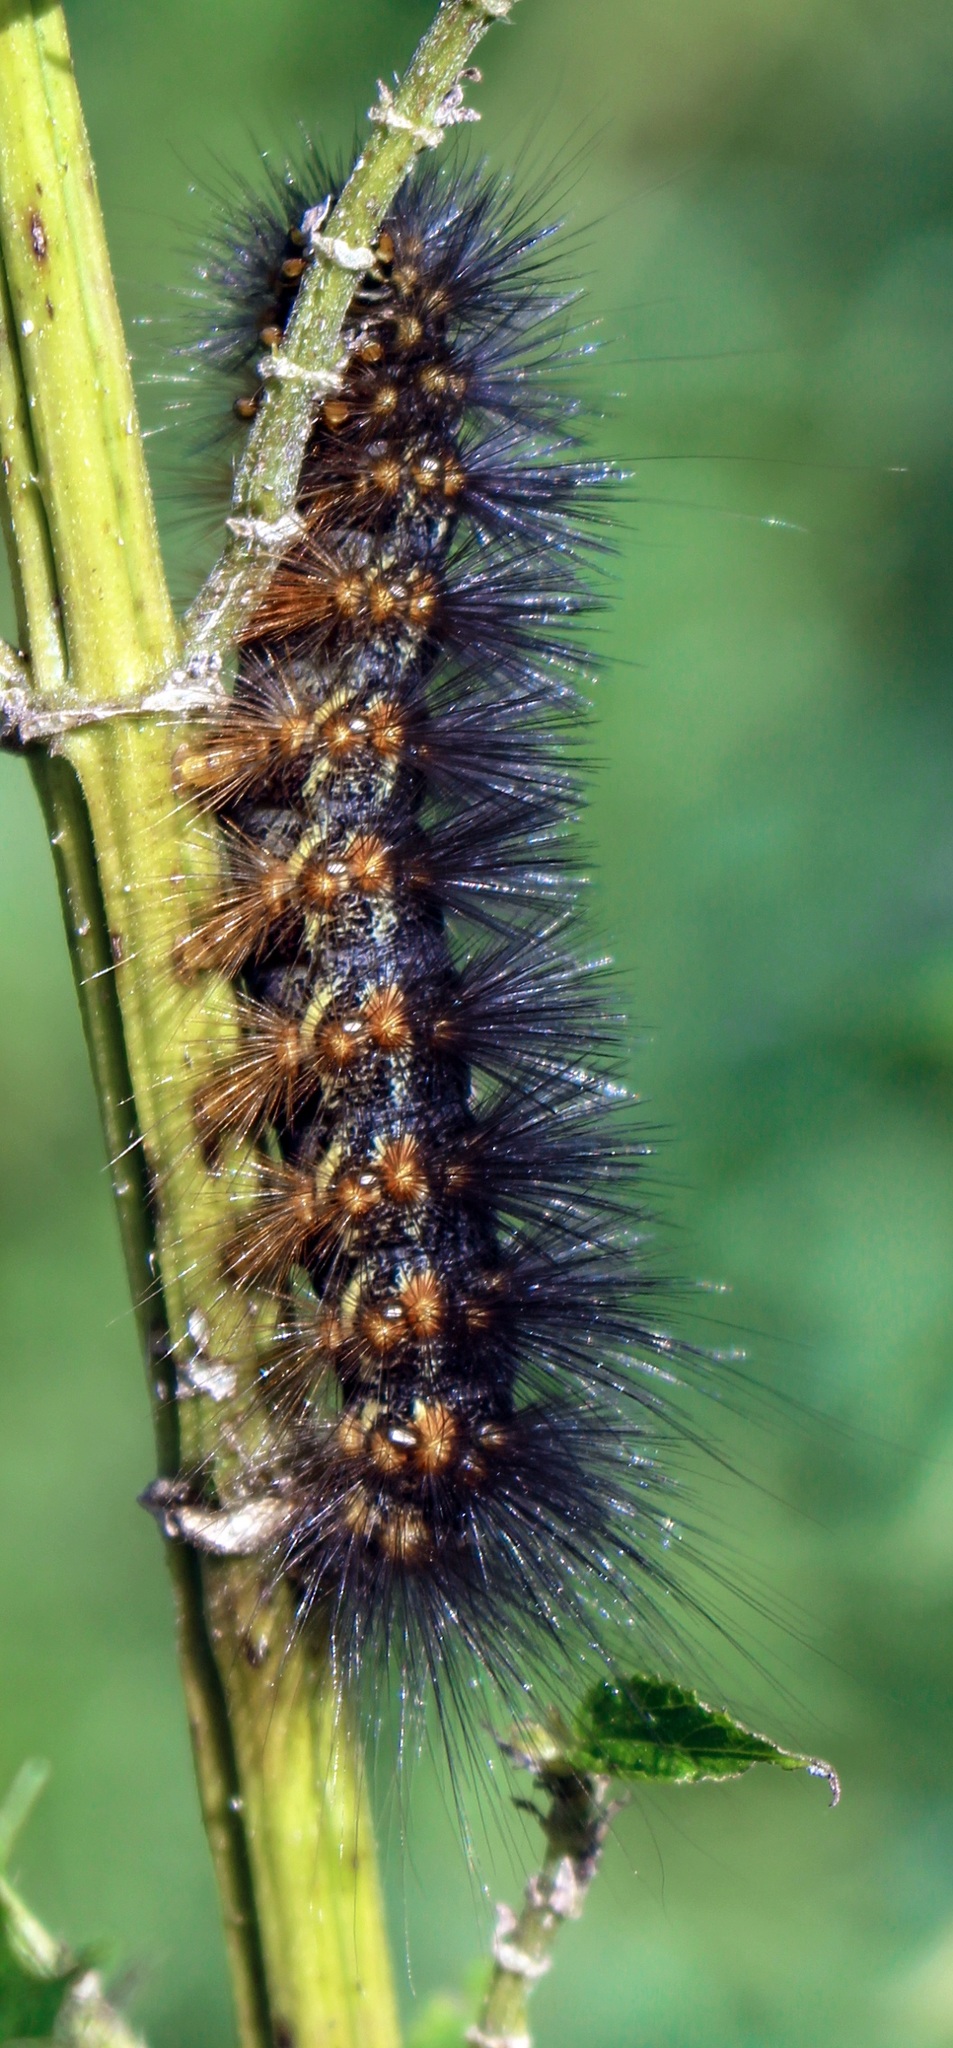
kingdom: Animalia
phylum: Arthropoda
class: Insecta
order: Lepidoptera
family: Erebidae
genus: Estigmene
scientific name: Estigmene acrea
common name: Salt marsh moth
